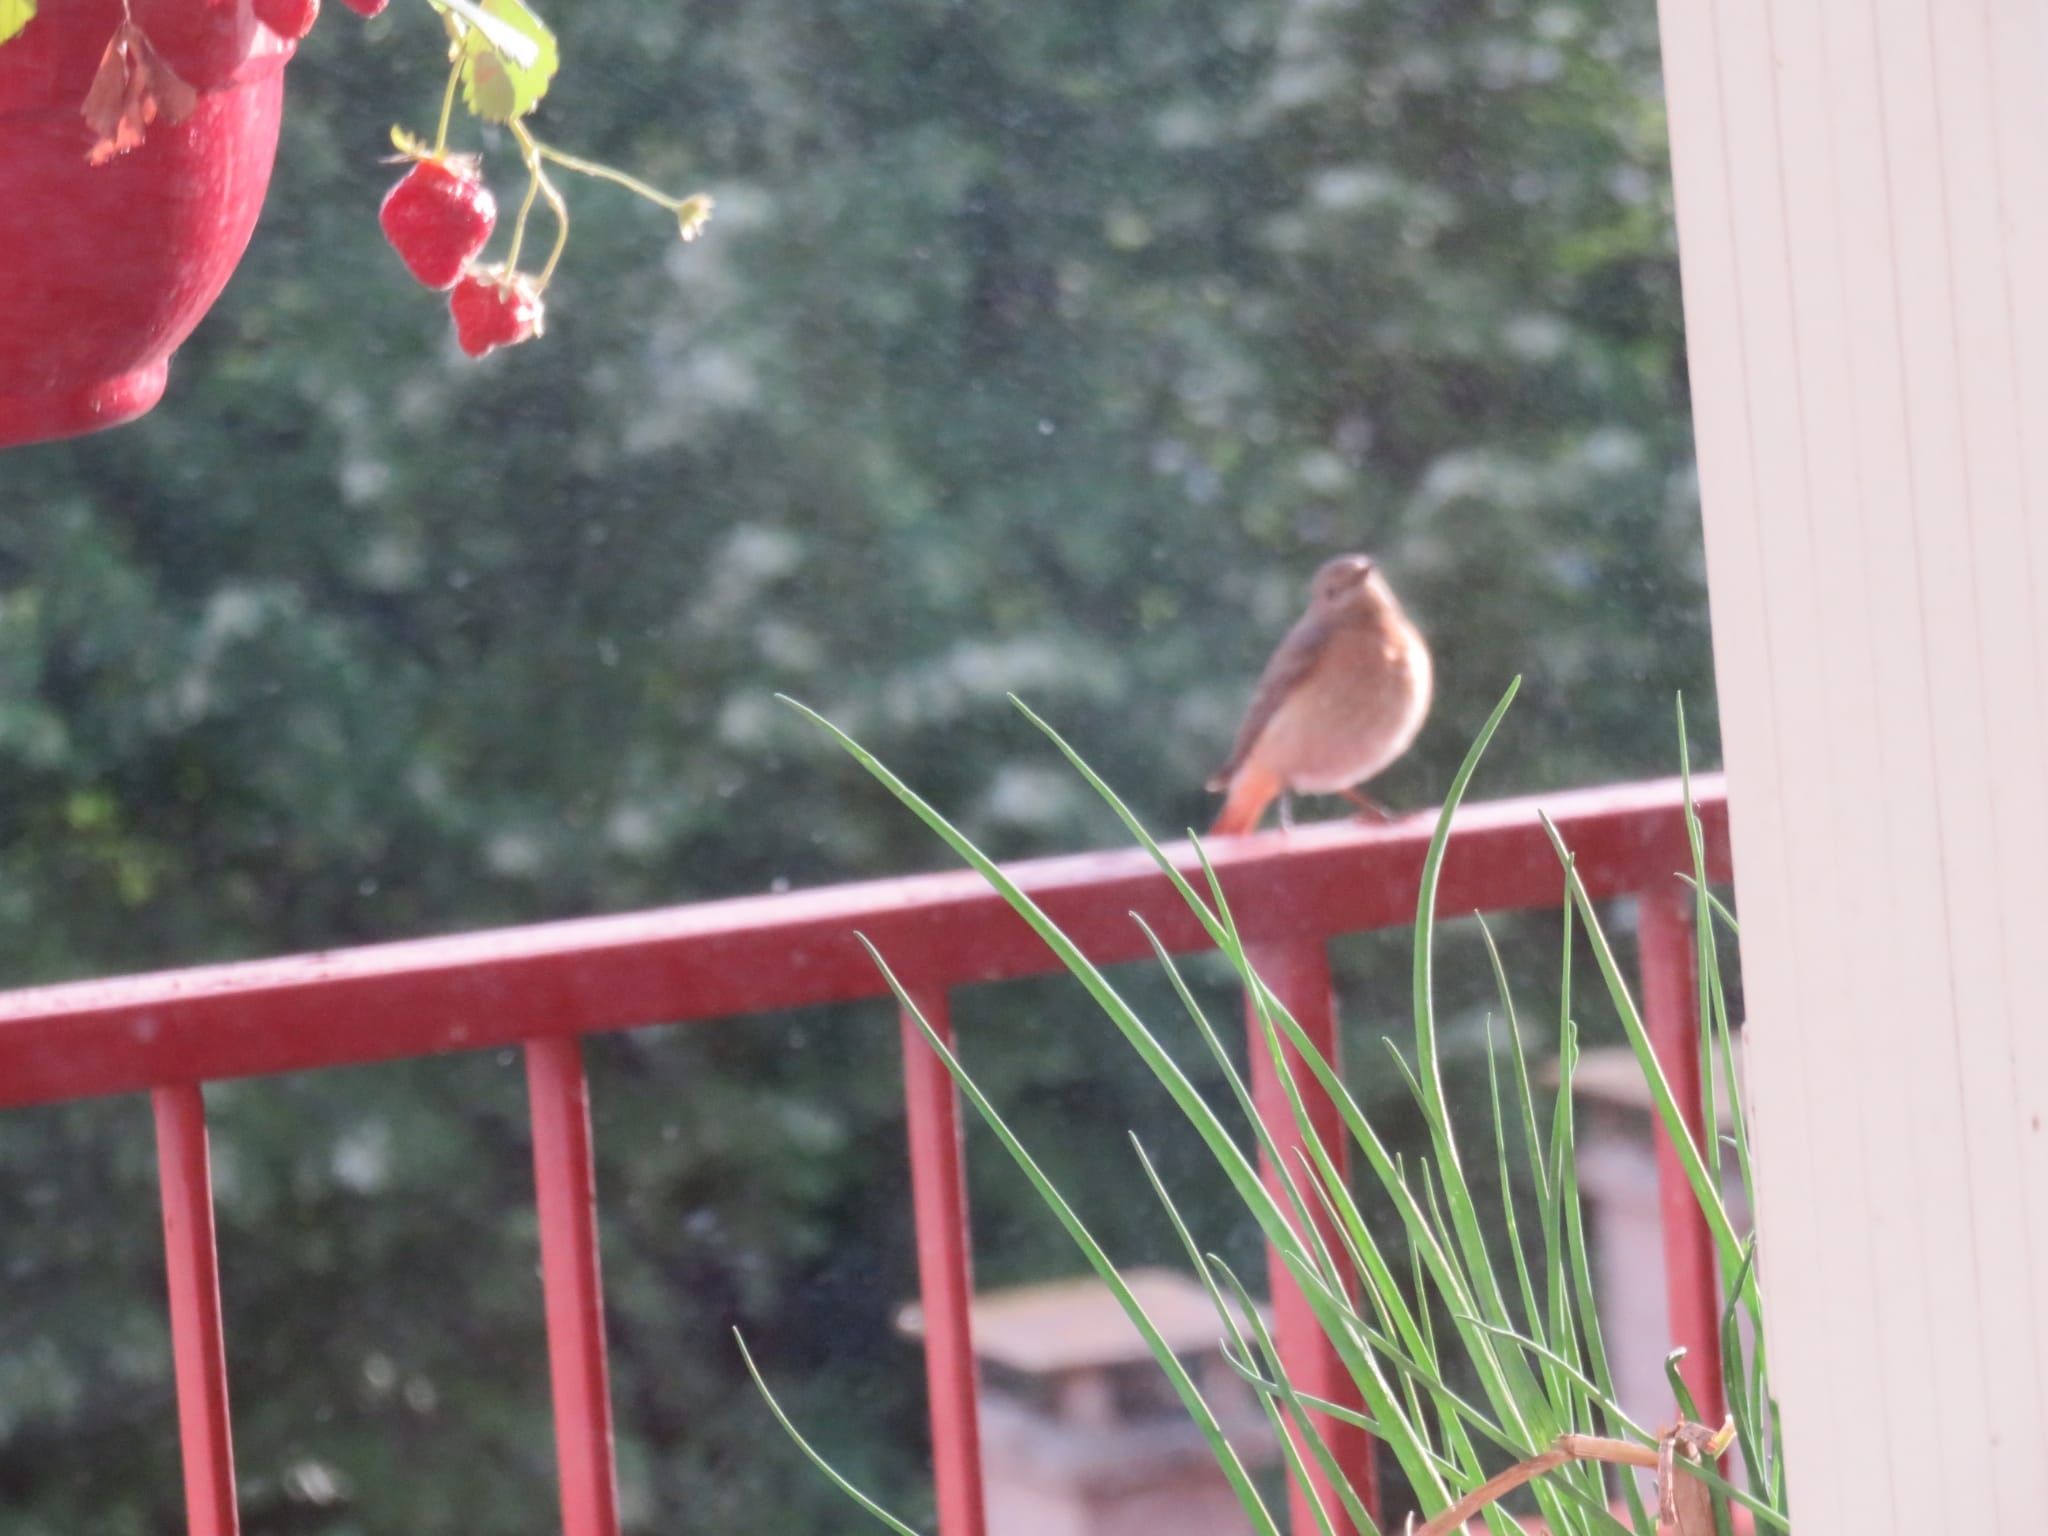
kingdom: Animalia
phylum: Chordata
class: Aves
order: Passeriformes
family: Muscicapidae
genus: Phoenicurus
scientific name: Phoenicurus phoenicurus
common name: Common redstart
